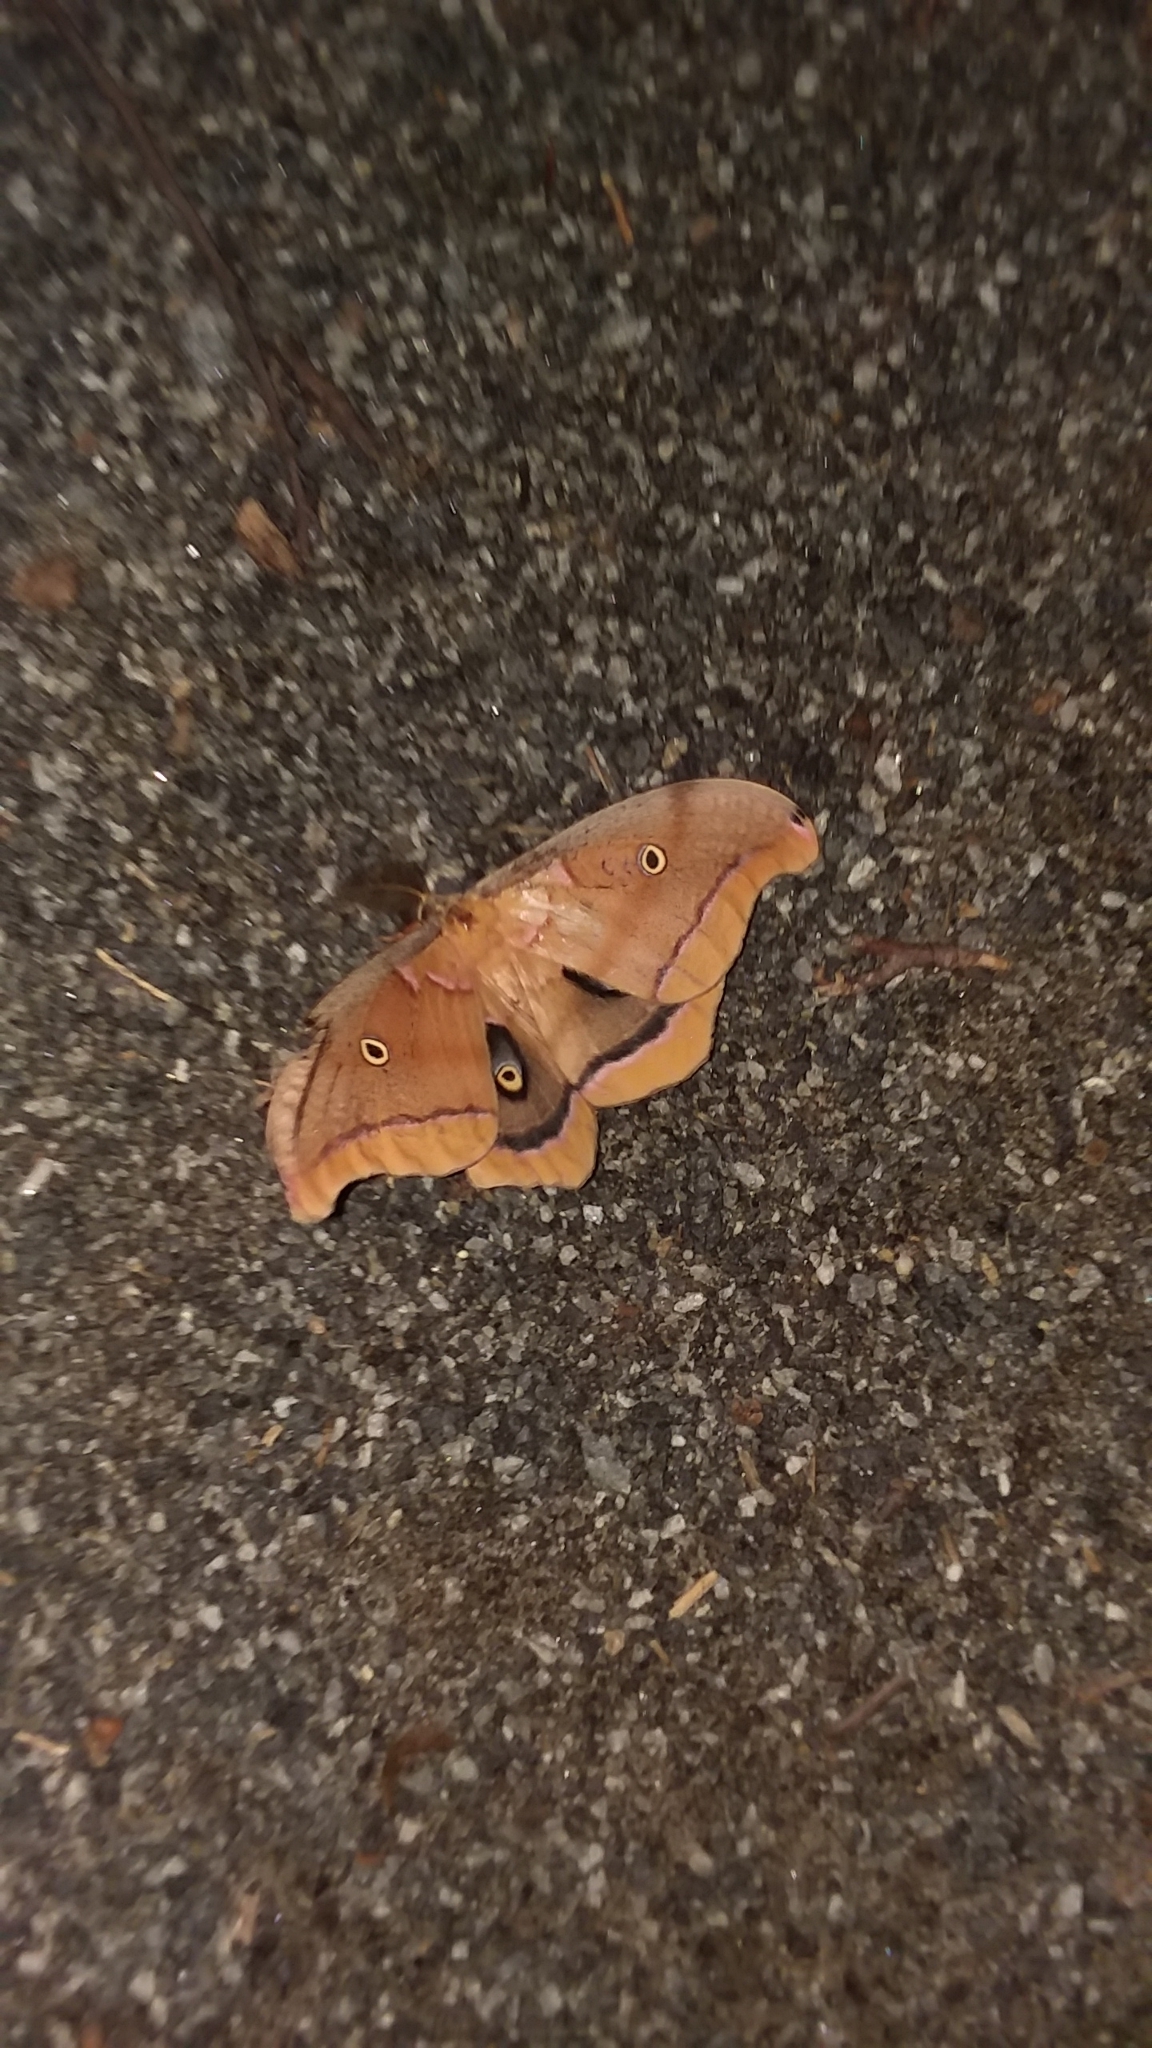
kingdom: Animalia
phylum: Arthropoda
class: Insecta
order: Lepidoptera
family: Saturniidae
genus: Antheraea
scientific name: Antheraea polyphemus
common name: Polyphemus moth
